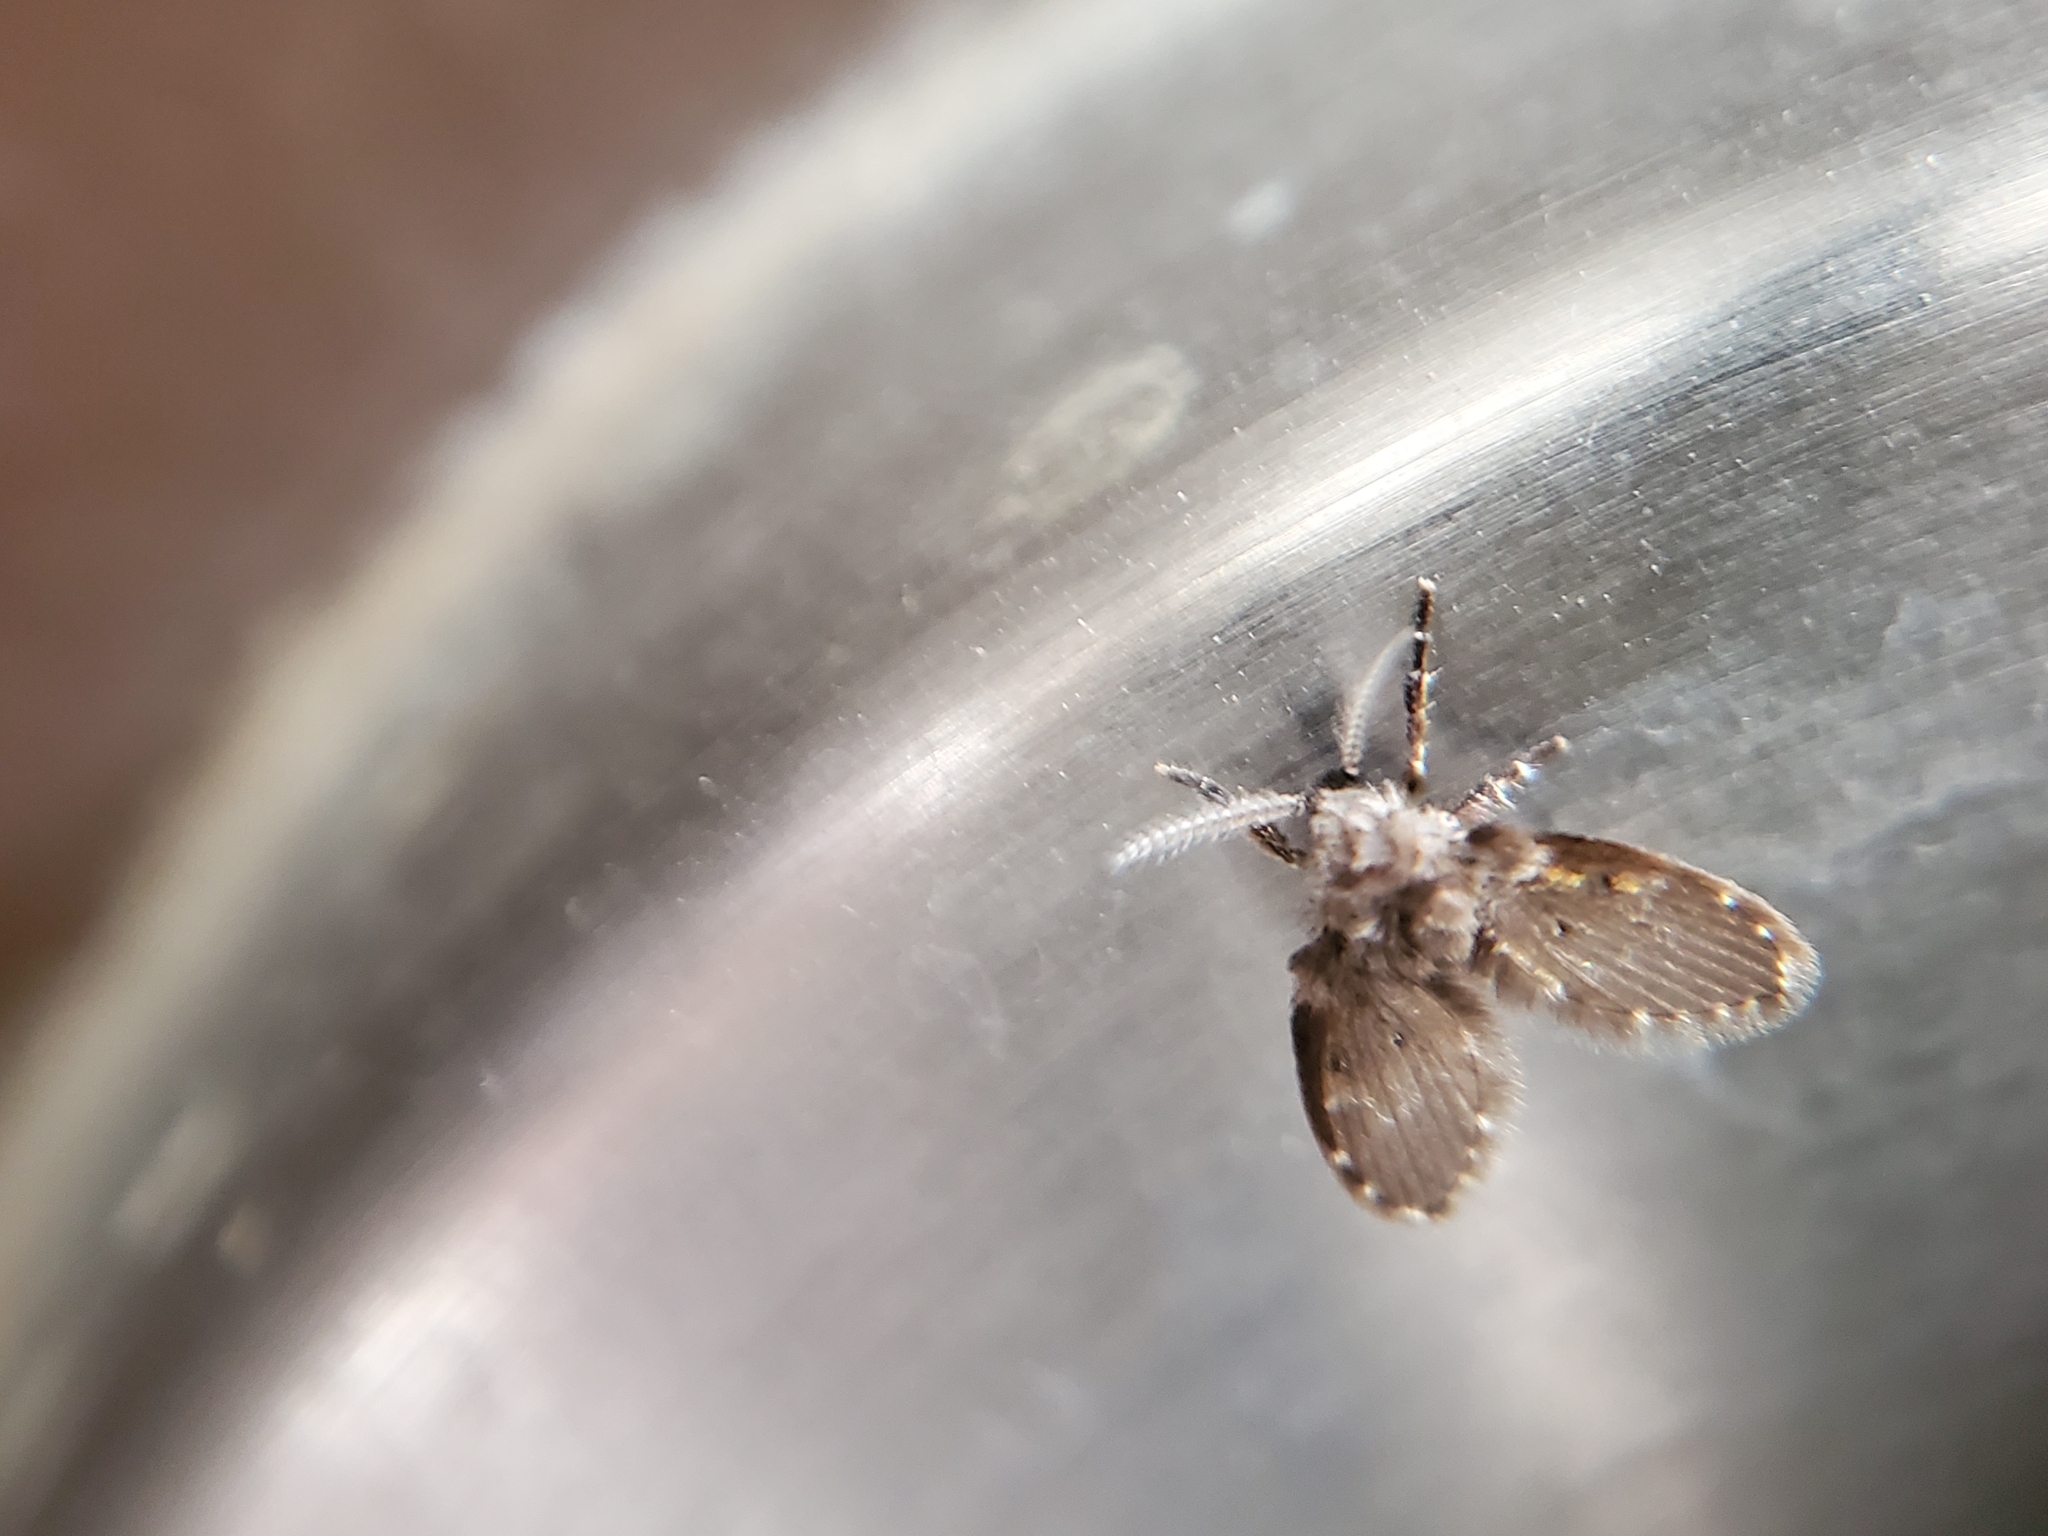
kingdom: Animalia
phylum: Arthropoda
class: Insecta
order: Diptera
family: Psychodidae
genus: Clogmia
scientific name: Clogmia albipunctatus
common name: White-spotted moth fly
